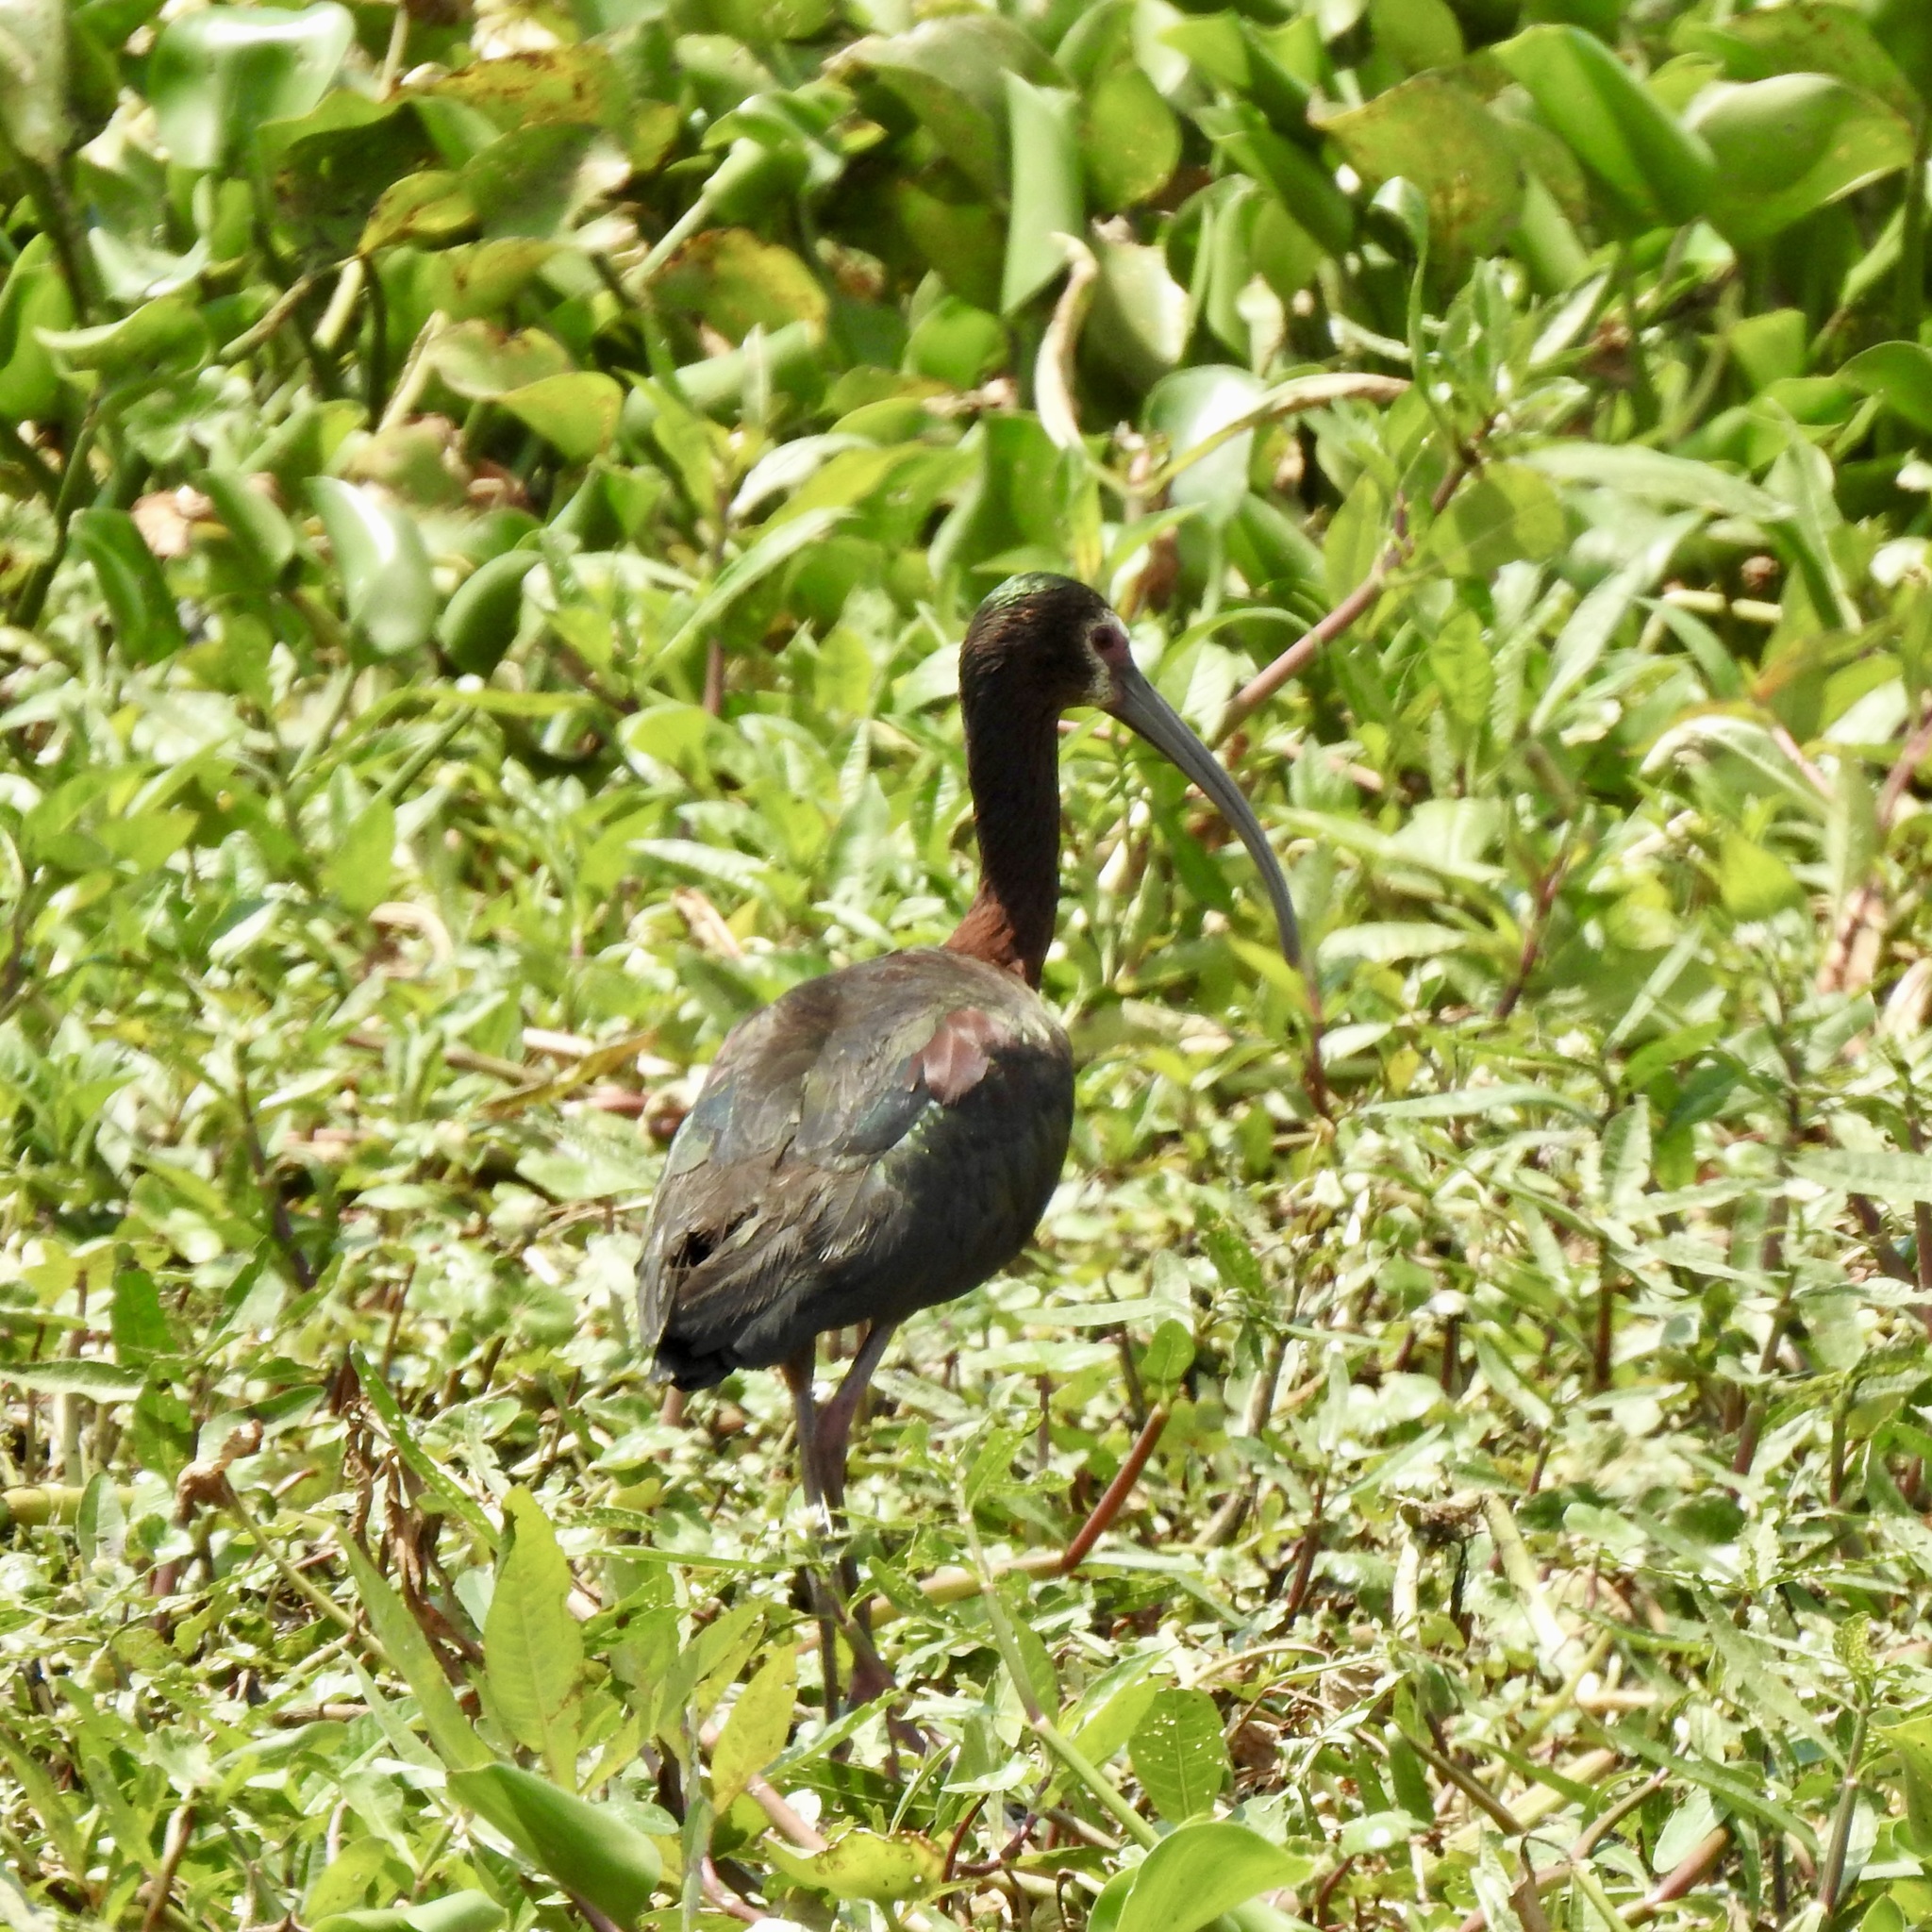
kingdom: Animalia
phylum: Chordata
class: Aves
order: Pelecaniformes
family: Threskiornithidae
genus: Plegadis
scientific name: Plegadis chihi
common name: White-faced ibis
